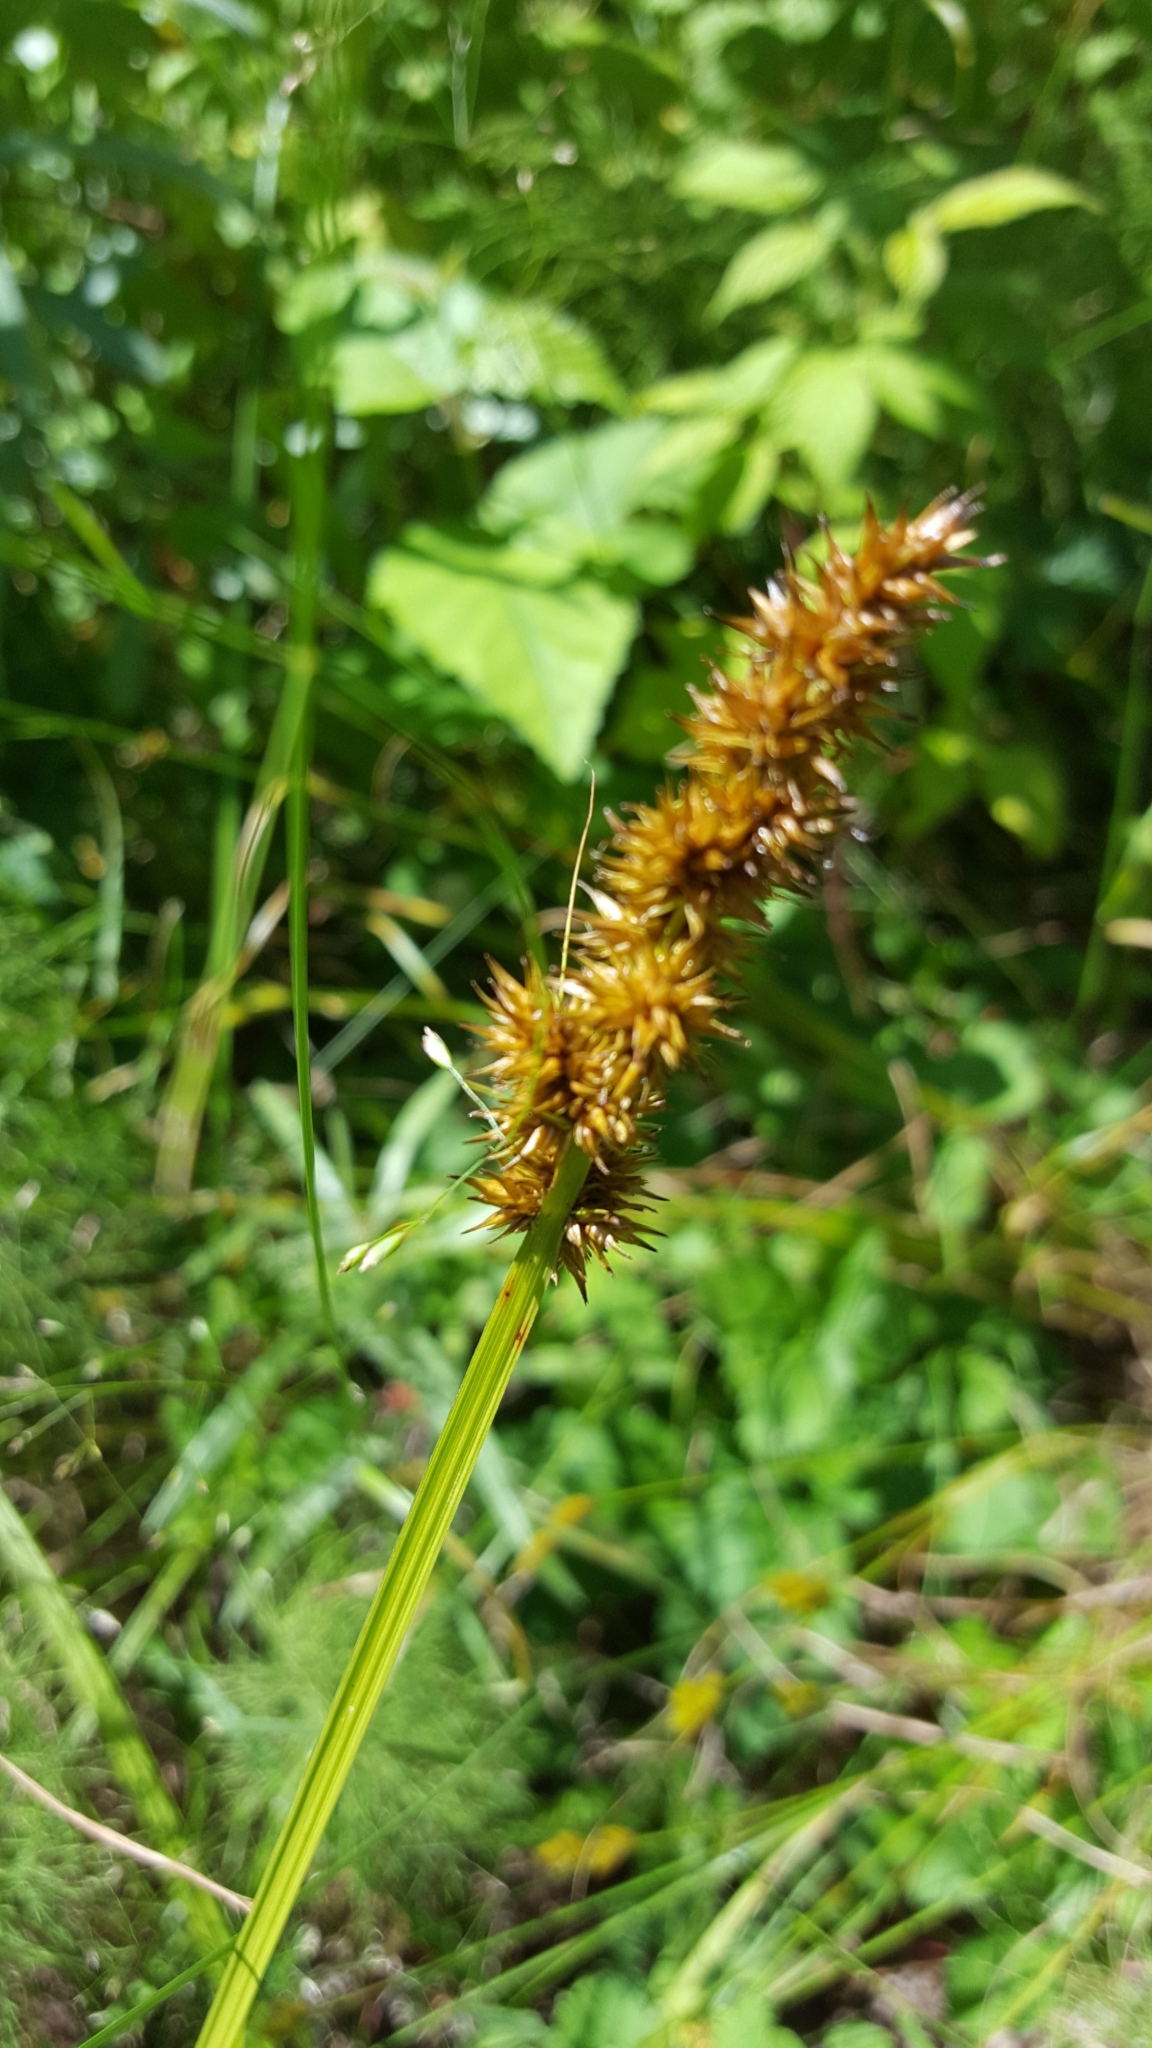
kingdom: Plantae
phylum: Tracheophyta
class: Liliopsida
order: Poales
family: Cyperaceae
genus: Carex
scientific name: Carex stipata
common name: Awl-fruited sedge
